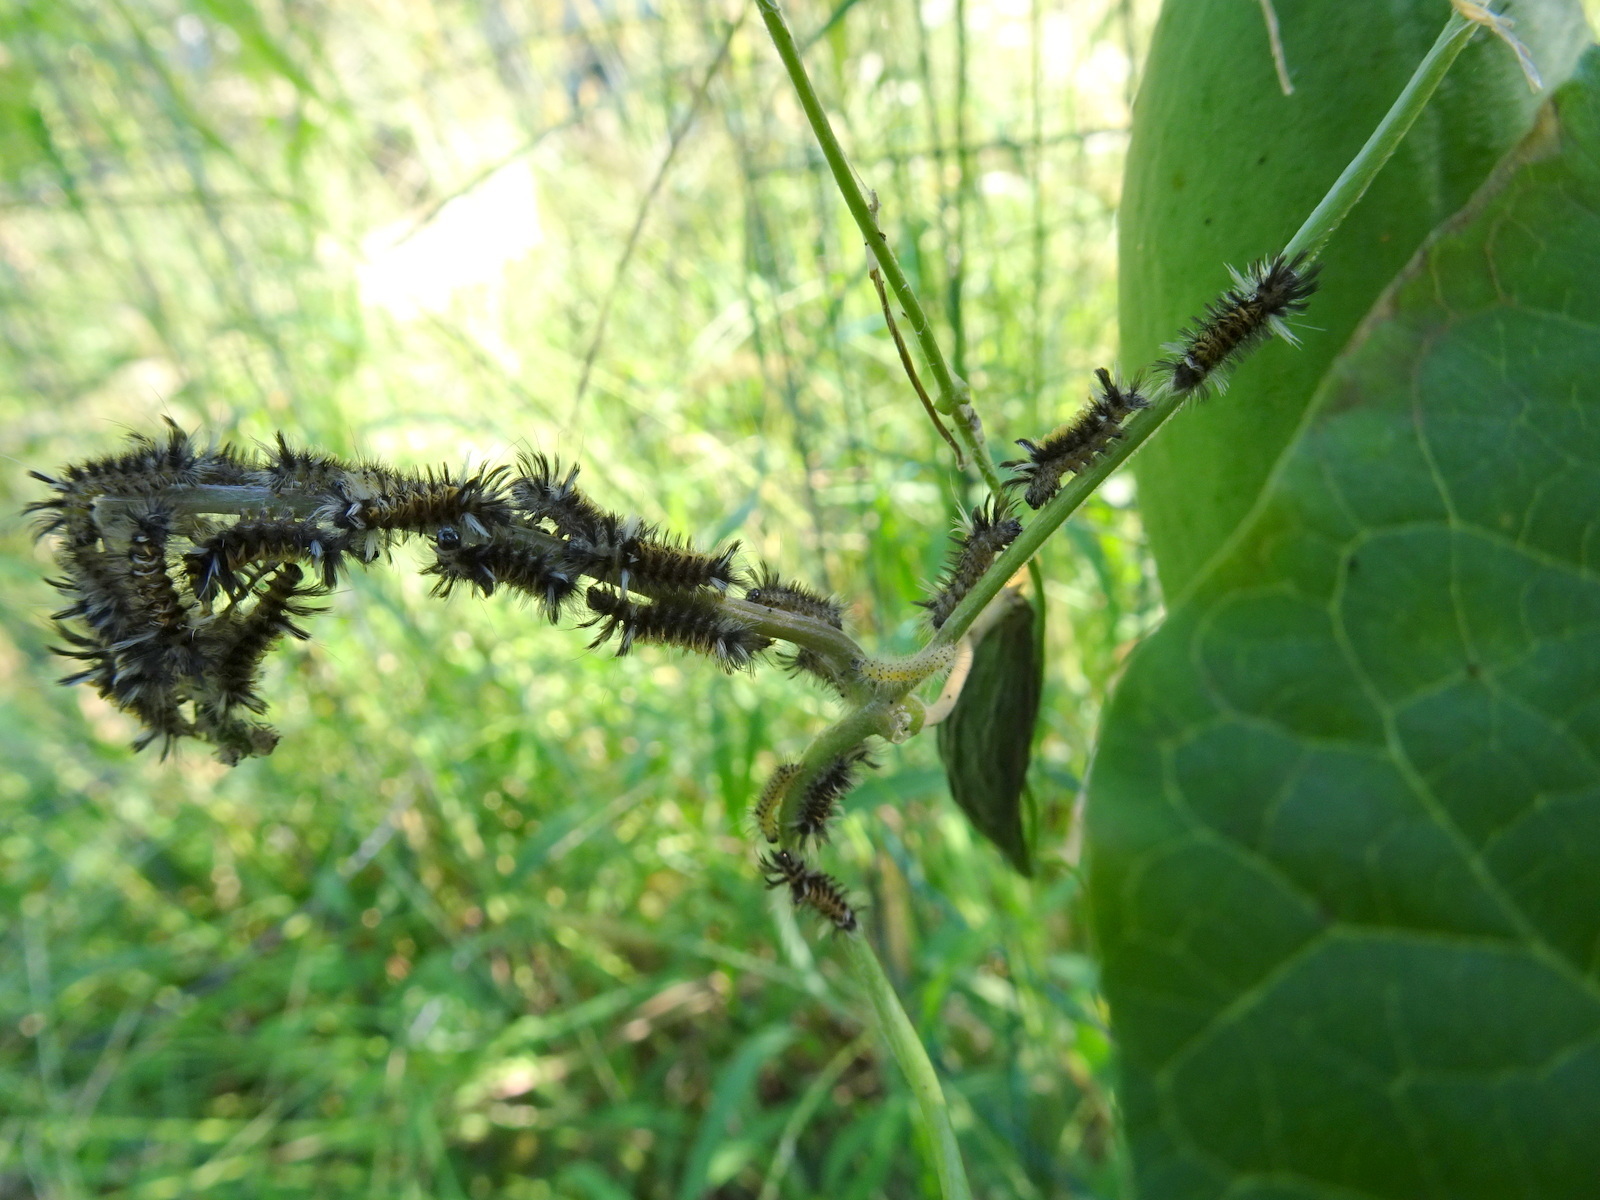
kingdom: Animalia
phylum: Arthropoda
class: Insecta
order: Lepidoptera
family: Erebidae
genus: Euchaetes
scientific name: Euchaetes egle
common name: Milkweed tussock moth
